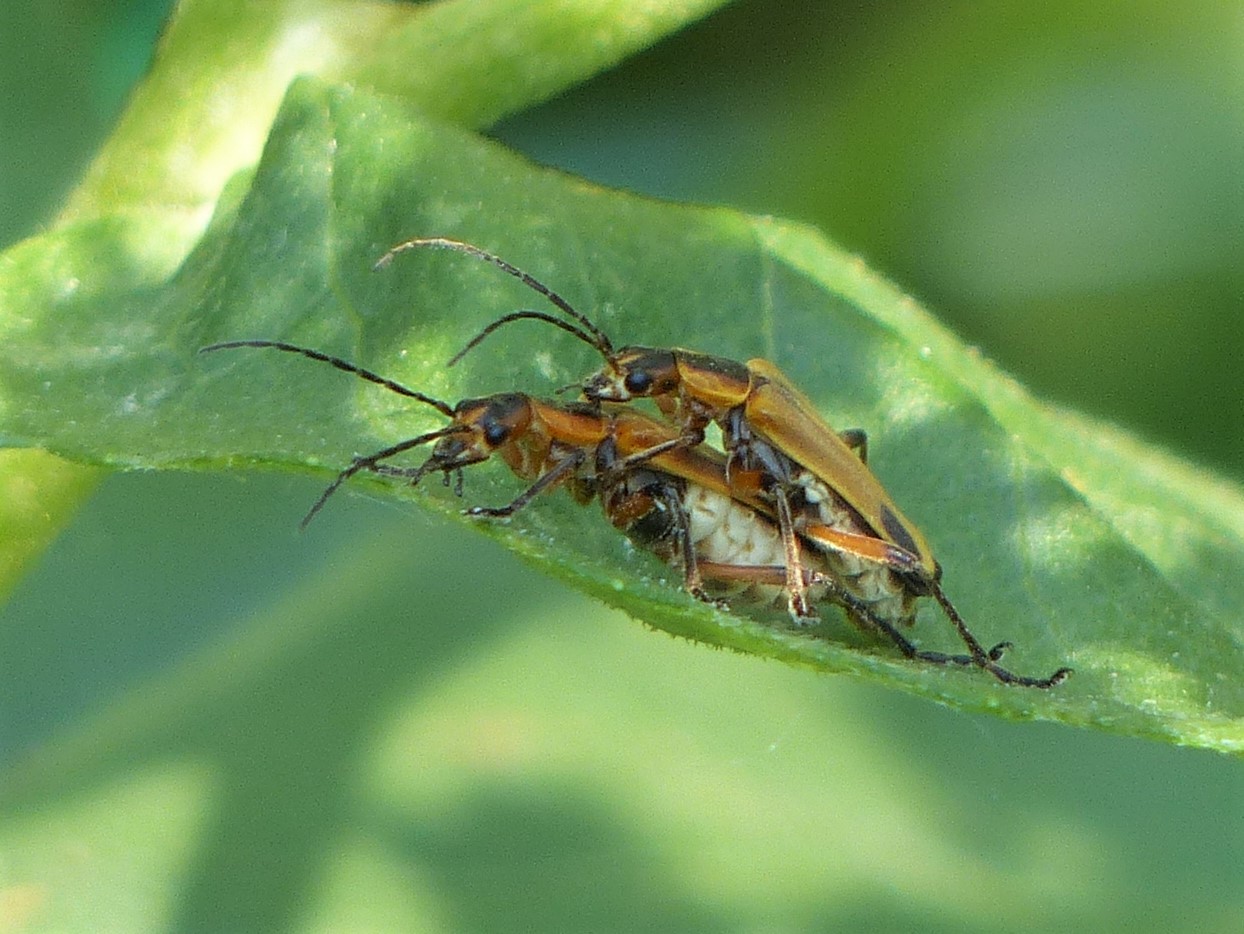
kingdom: Animalia
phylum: Arthropoda
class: Insecta
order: Coleoptera
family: Cantharidae
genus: Chauliognathus
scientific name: Chauliognathus marginatus
